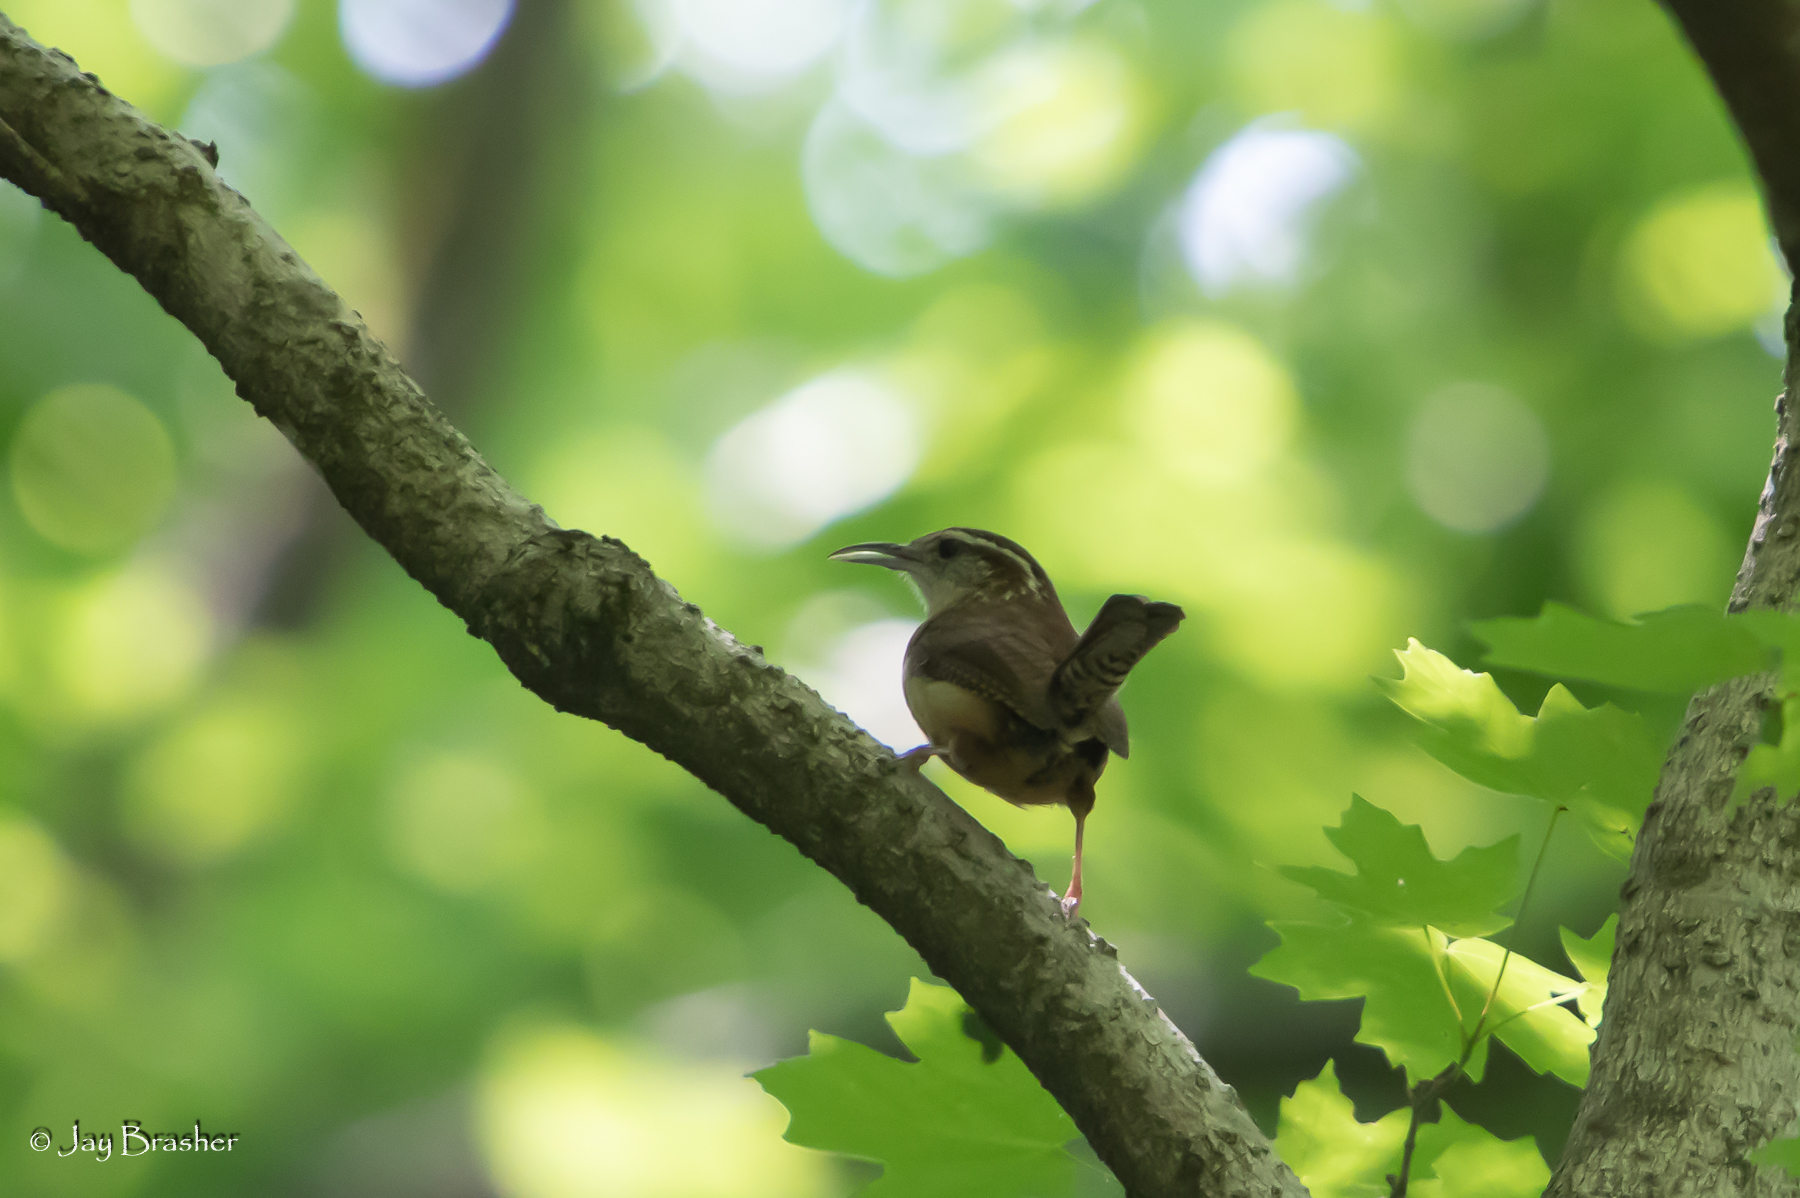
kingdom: Animalia
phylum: Chordata
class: Aves
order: Passeriformes
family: Troglodytidae
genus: Thryothorus
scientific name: Thryothorus ludovicianus
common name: Carolina wren
